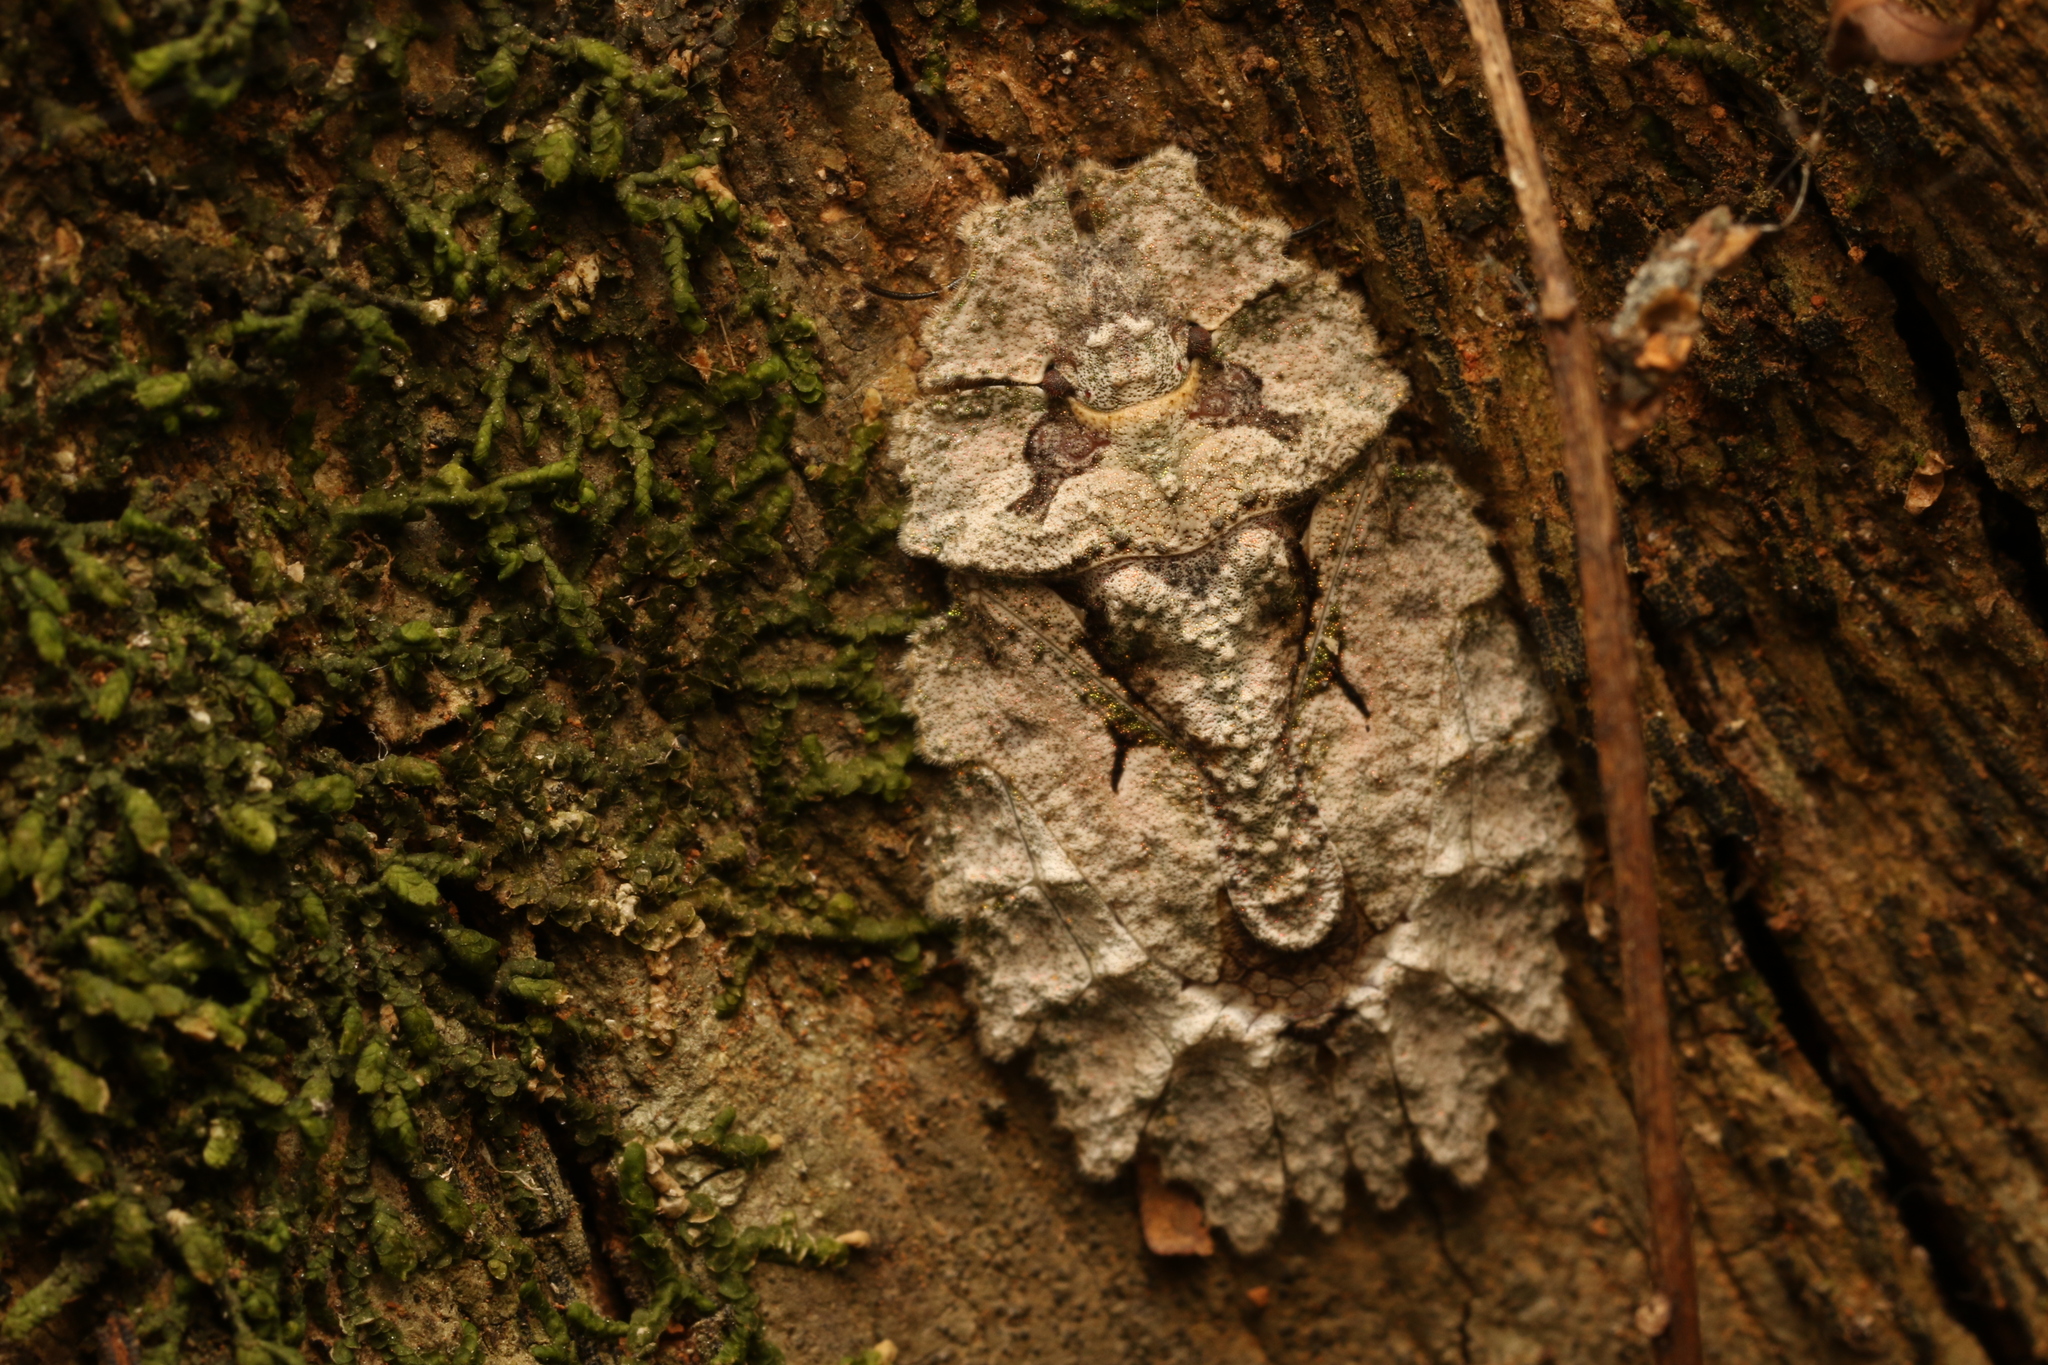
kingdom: Animalia
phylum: Arthropoda
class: Insecta
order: Hemiptera
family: Phloeidae
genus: Phloeophana
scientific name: Phloeophana longirostris
